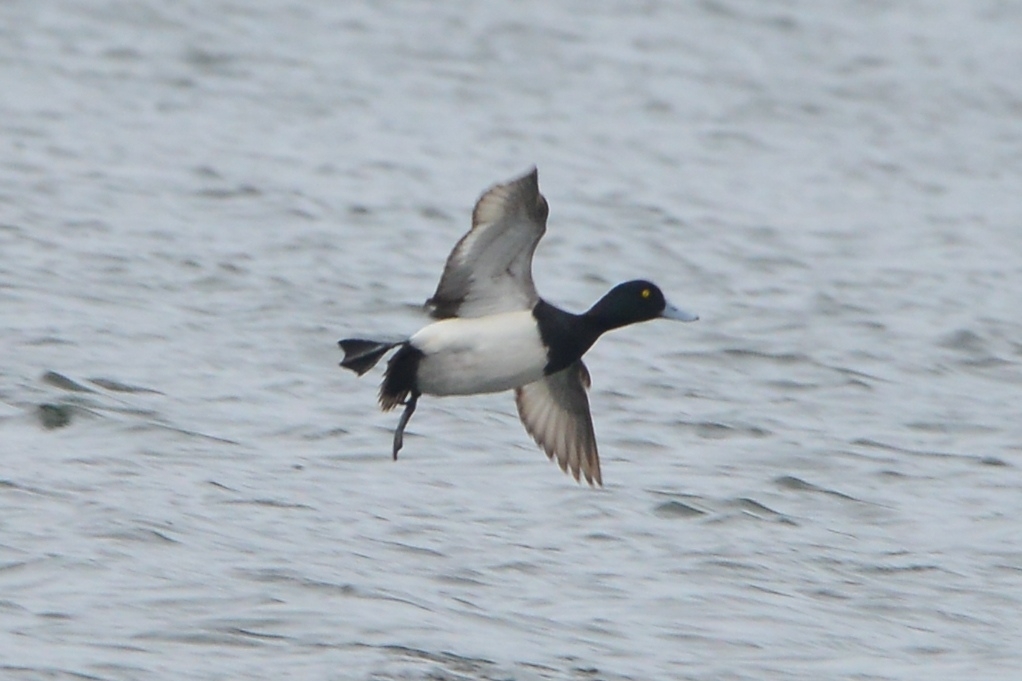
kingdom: Animalia
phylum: Chordata
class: Aves
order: Anseriformes
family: Anatidae
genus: Aythya
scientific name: Aythya marila
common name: Greater scaup
